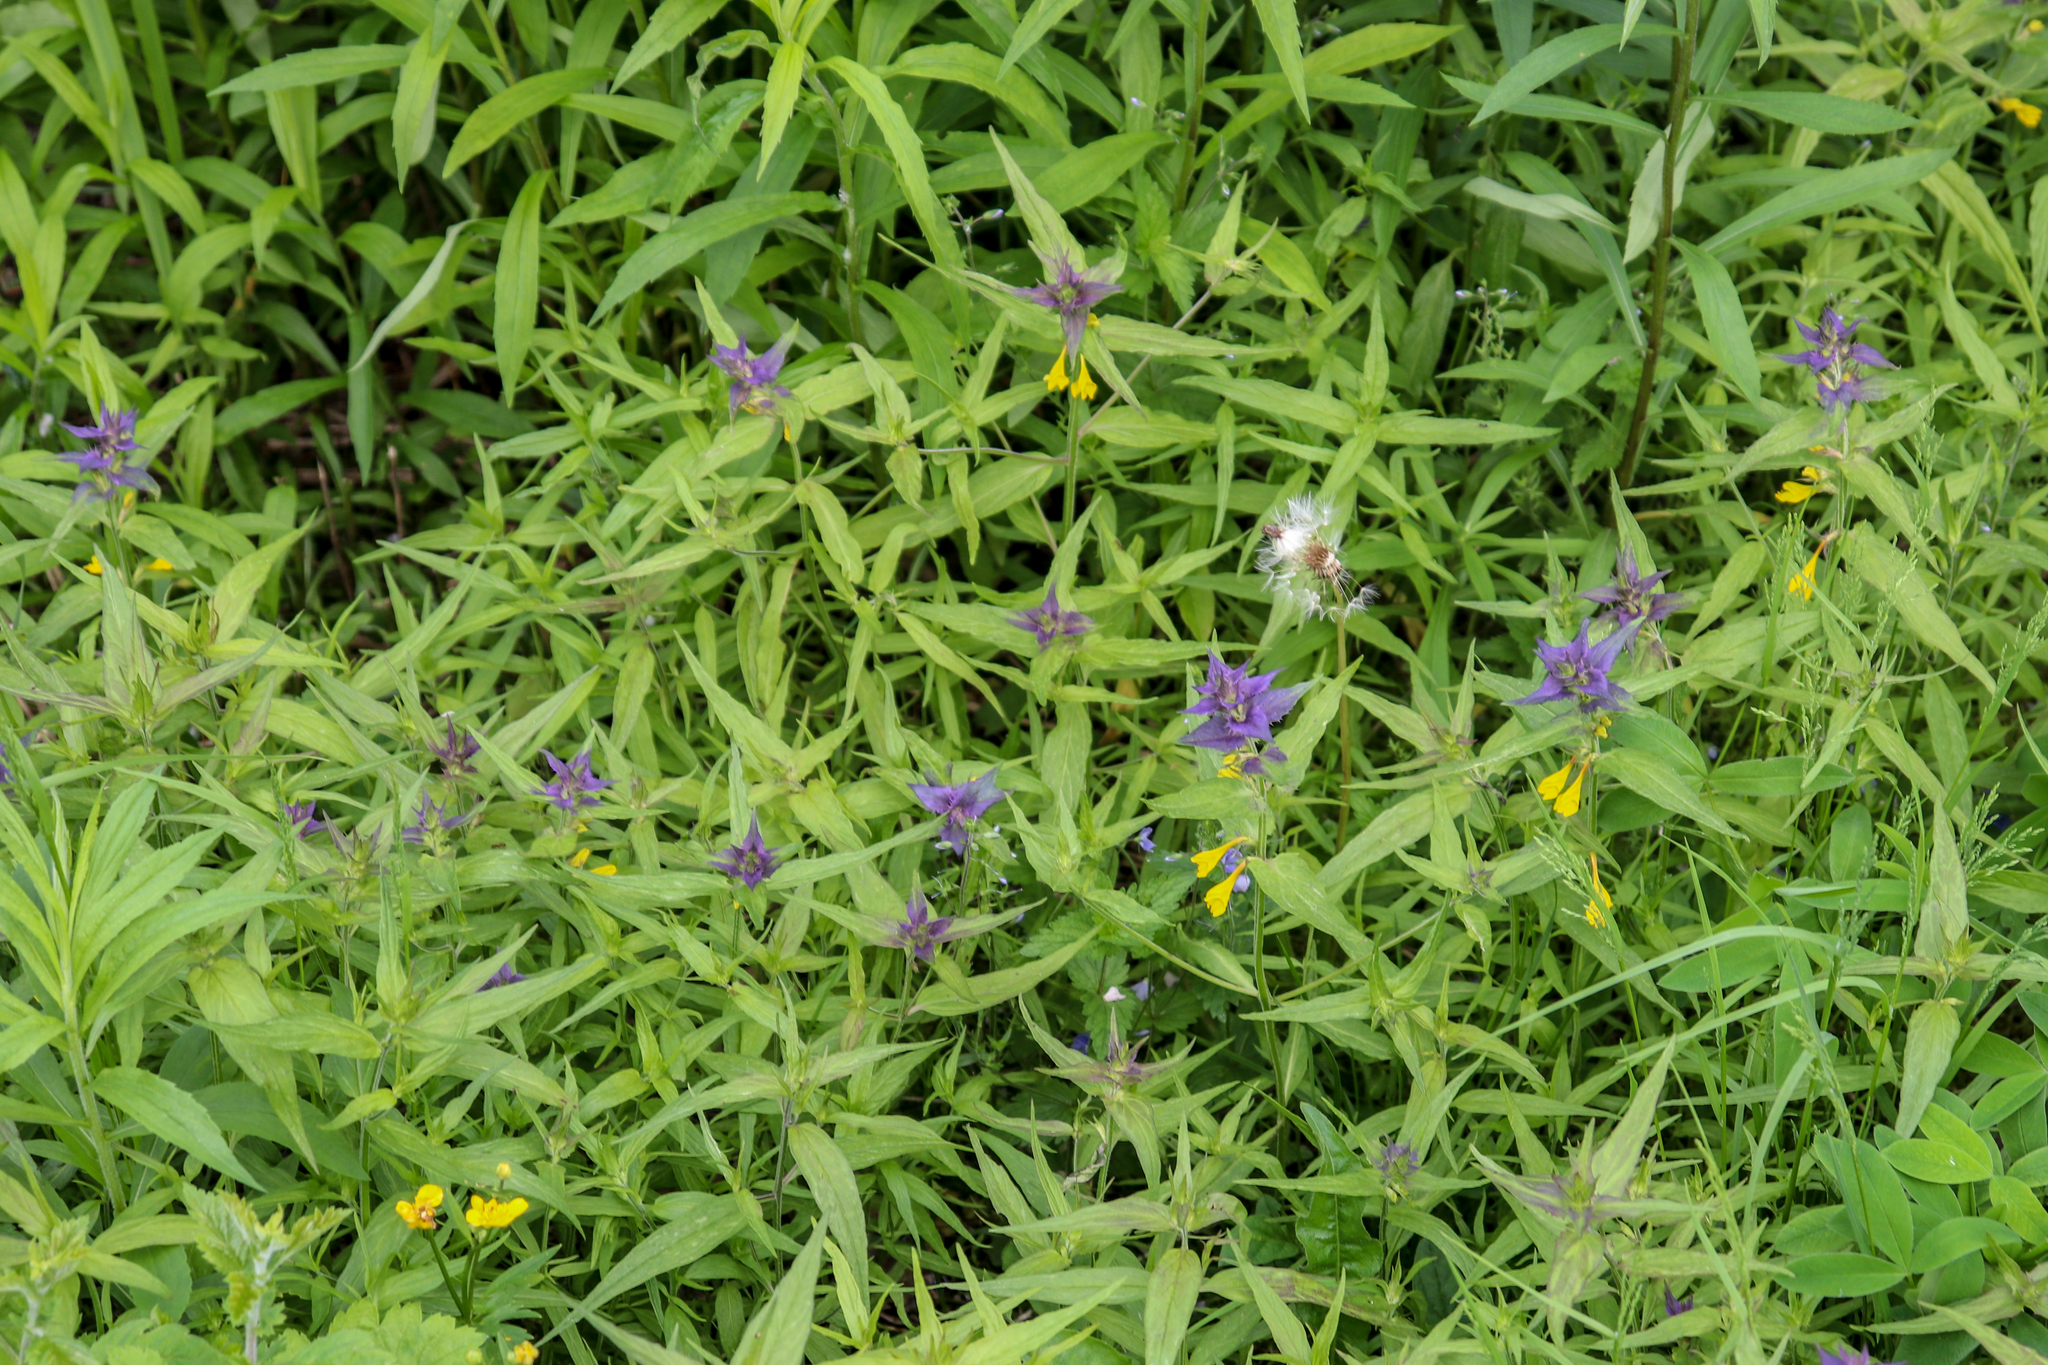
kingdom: Plantae
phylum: Tracheophyta
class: Magnoliopsida
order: Lamiales
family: Orobanchaceae
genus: Melampyrum
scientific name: Melampyrum nemorosum
